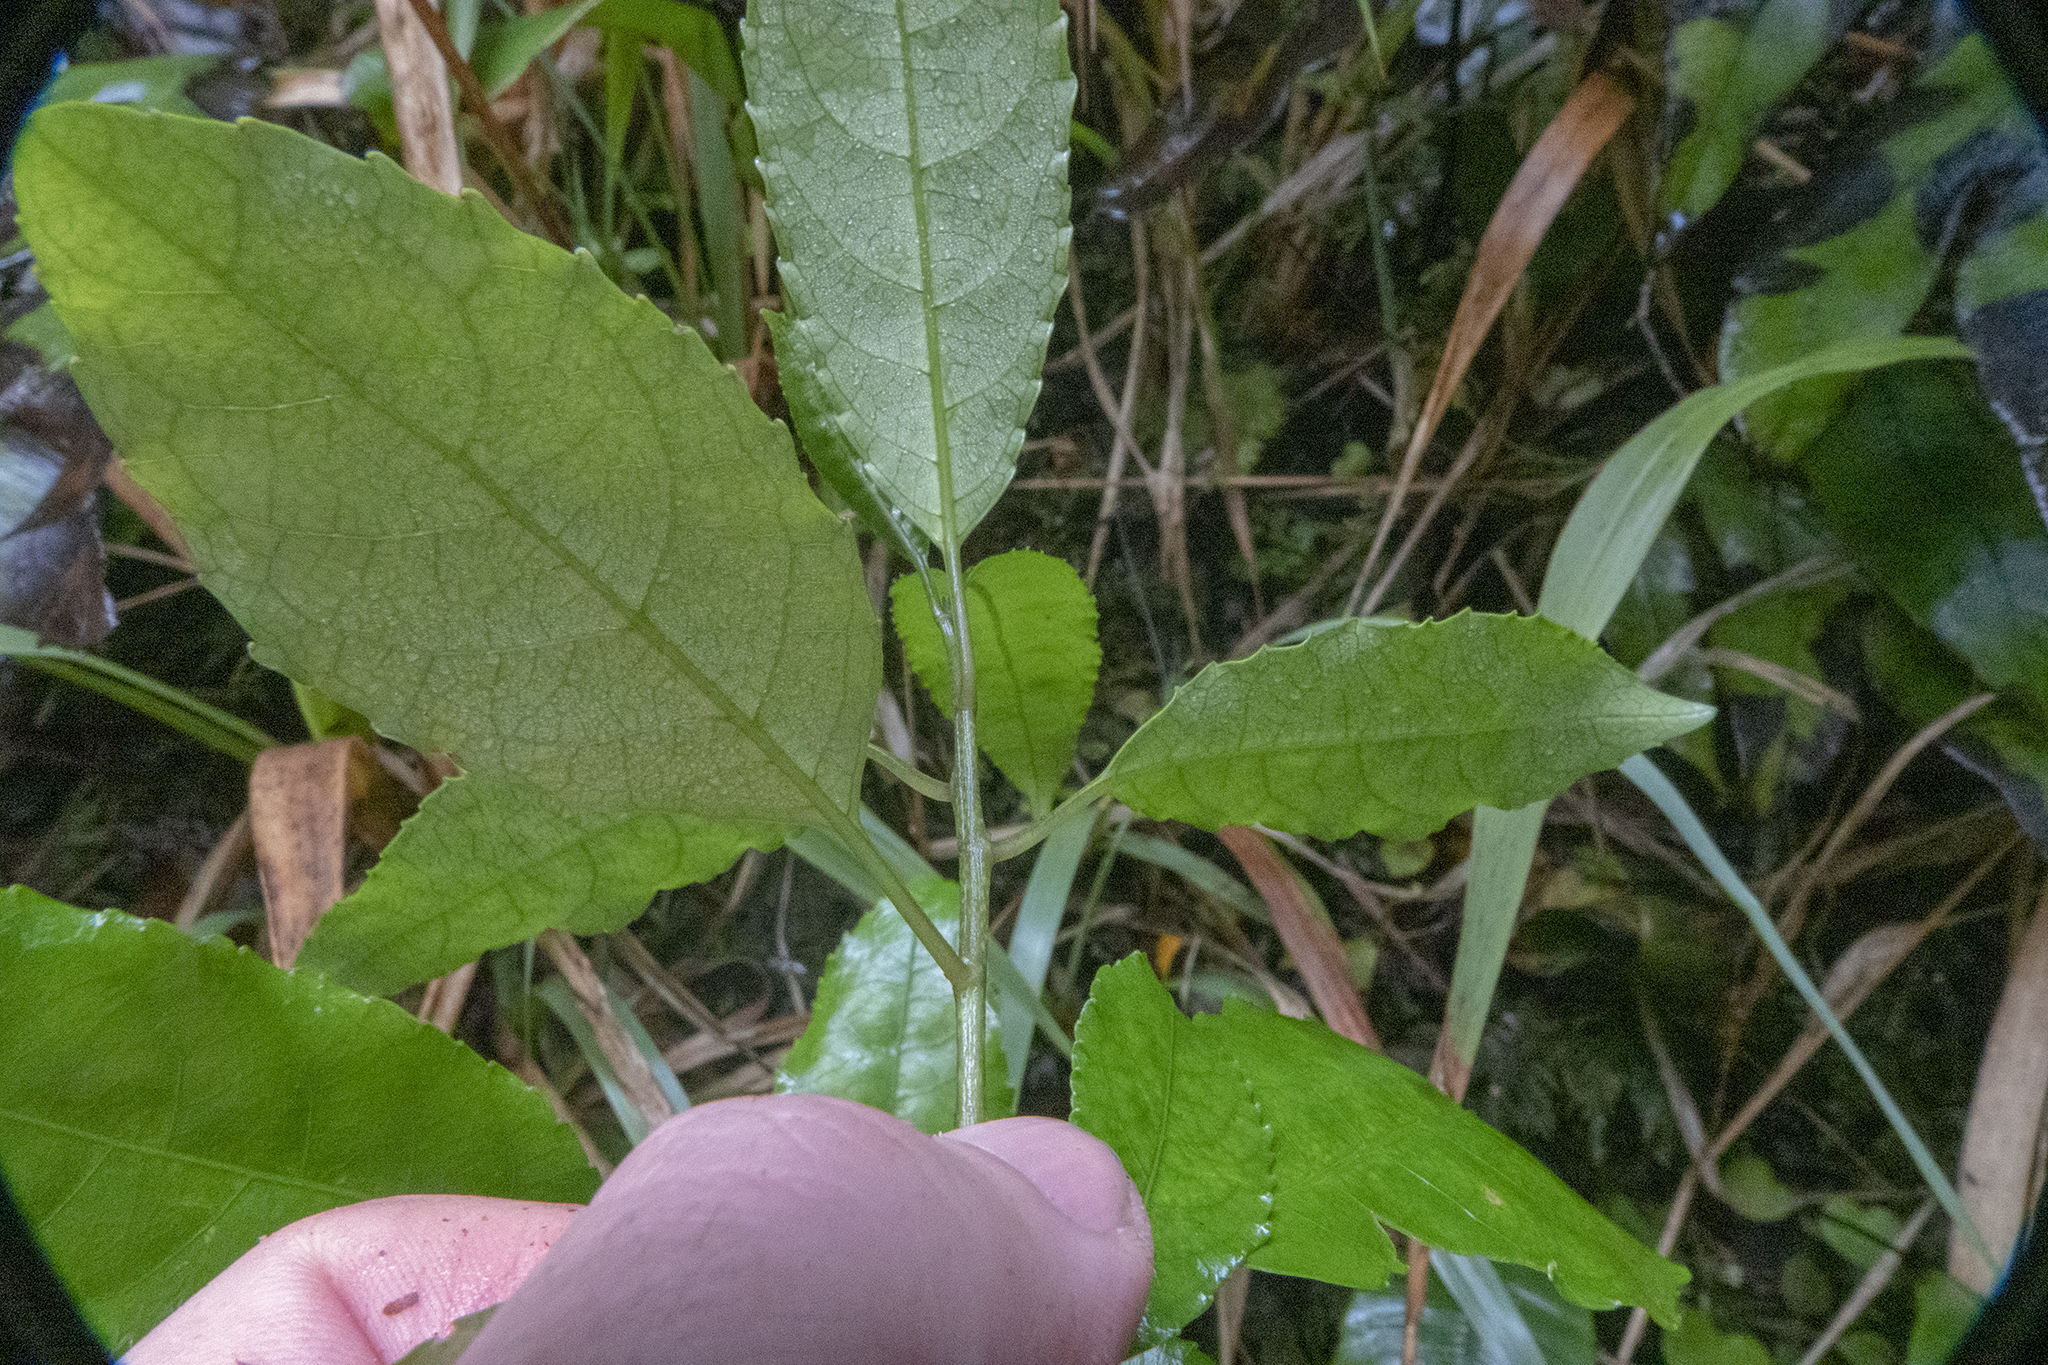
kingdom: Plantae
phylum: Tracheophyta
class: Magnoliopsida
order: Malpighiales
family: Violaceae
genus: Melicytus
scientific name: Melicytus ramiflorus
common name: Mahoe
